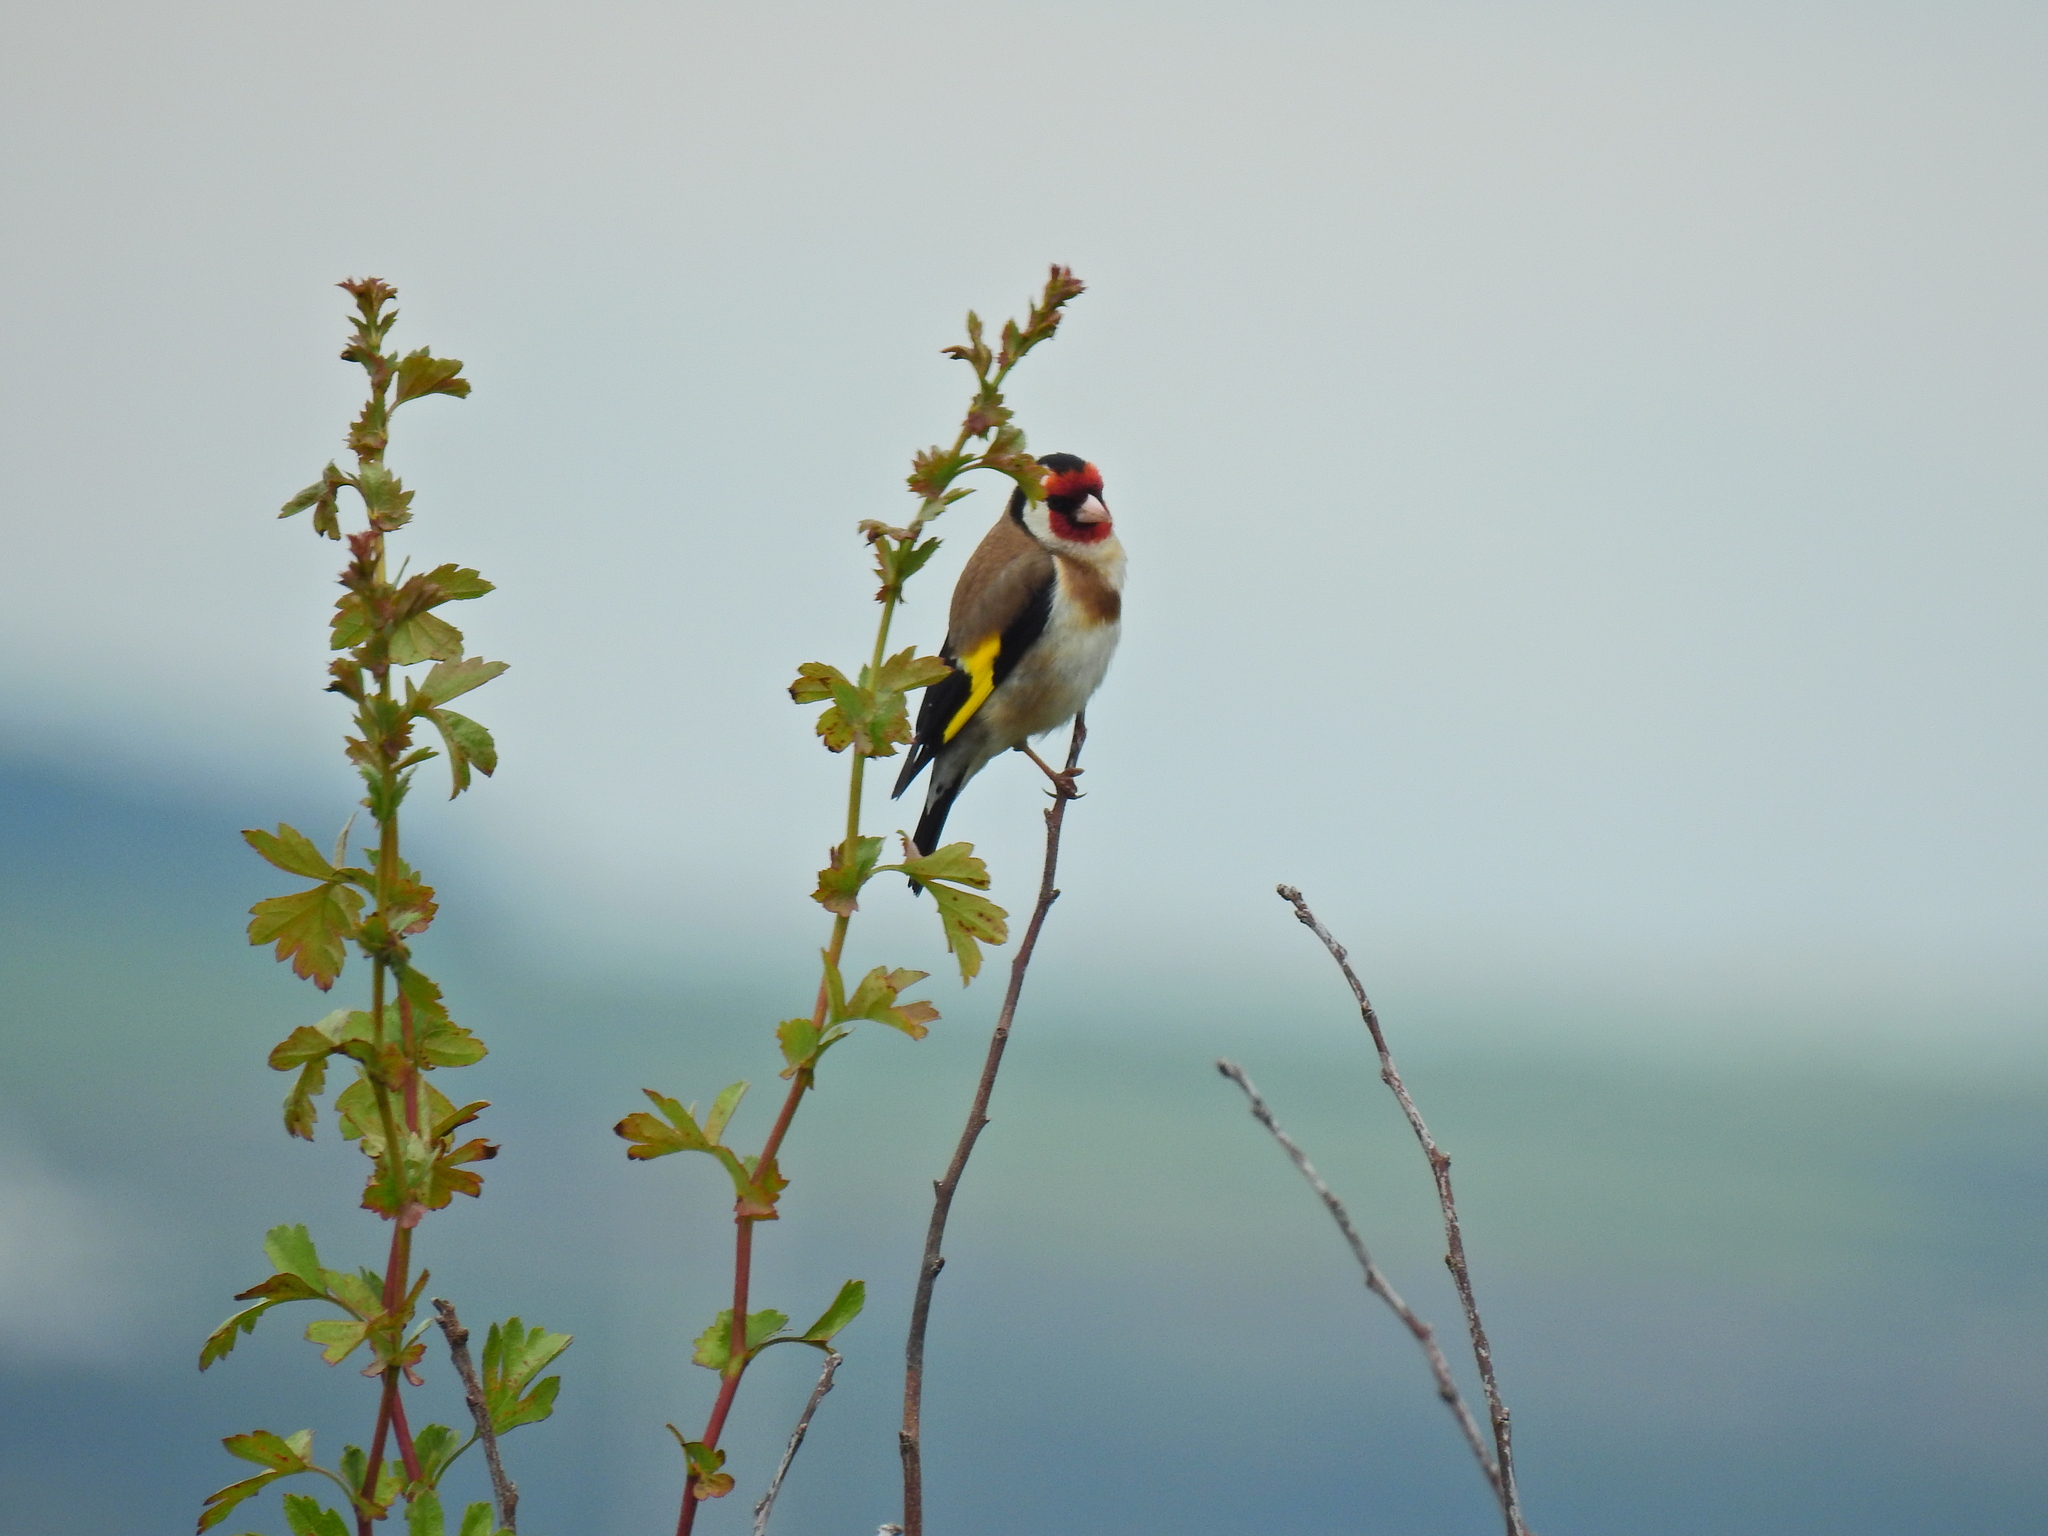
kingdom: Animalia
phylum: Chordata
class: Aves
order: Passeriformes
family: Fringillidae
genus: Carduelis
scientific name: Carduelis carduelis
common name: European goldfinch
